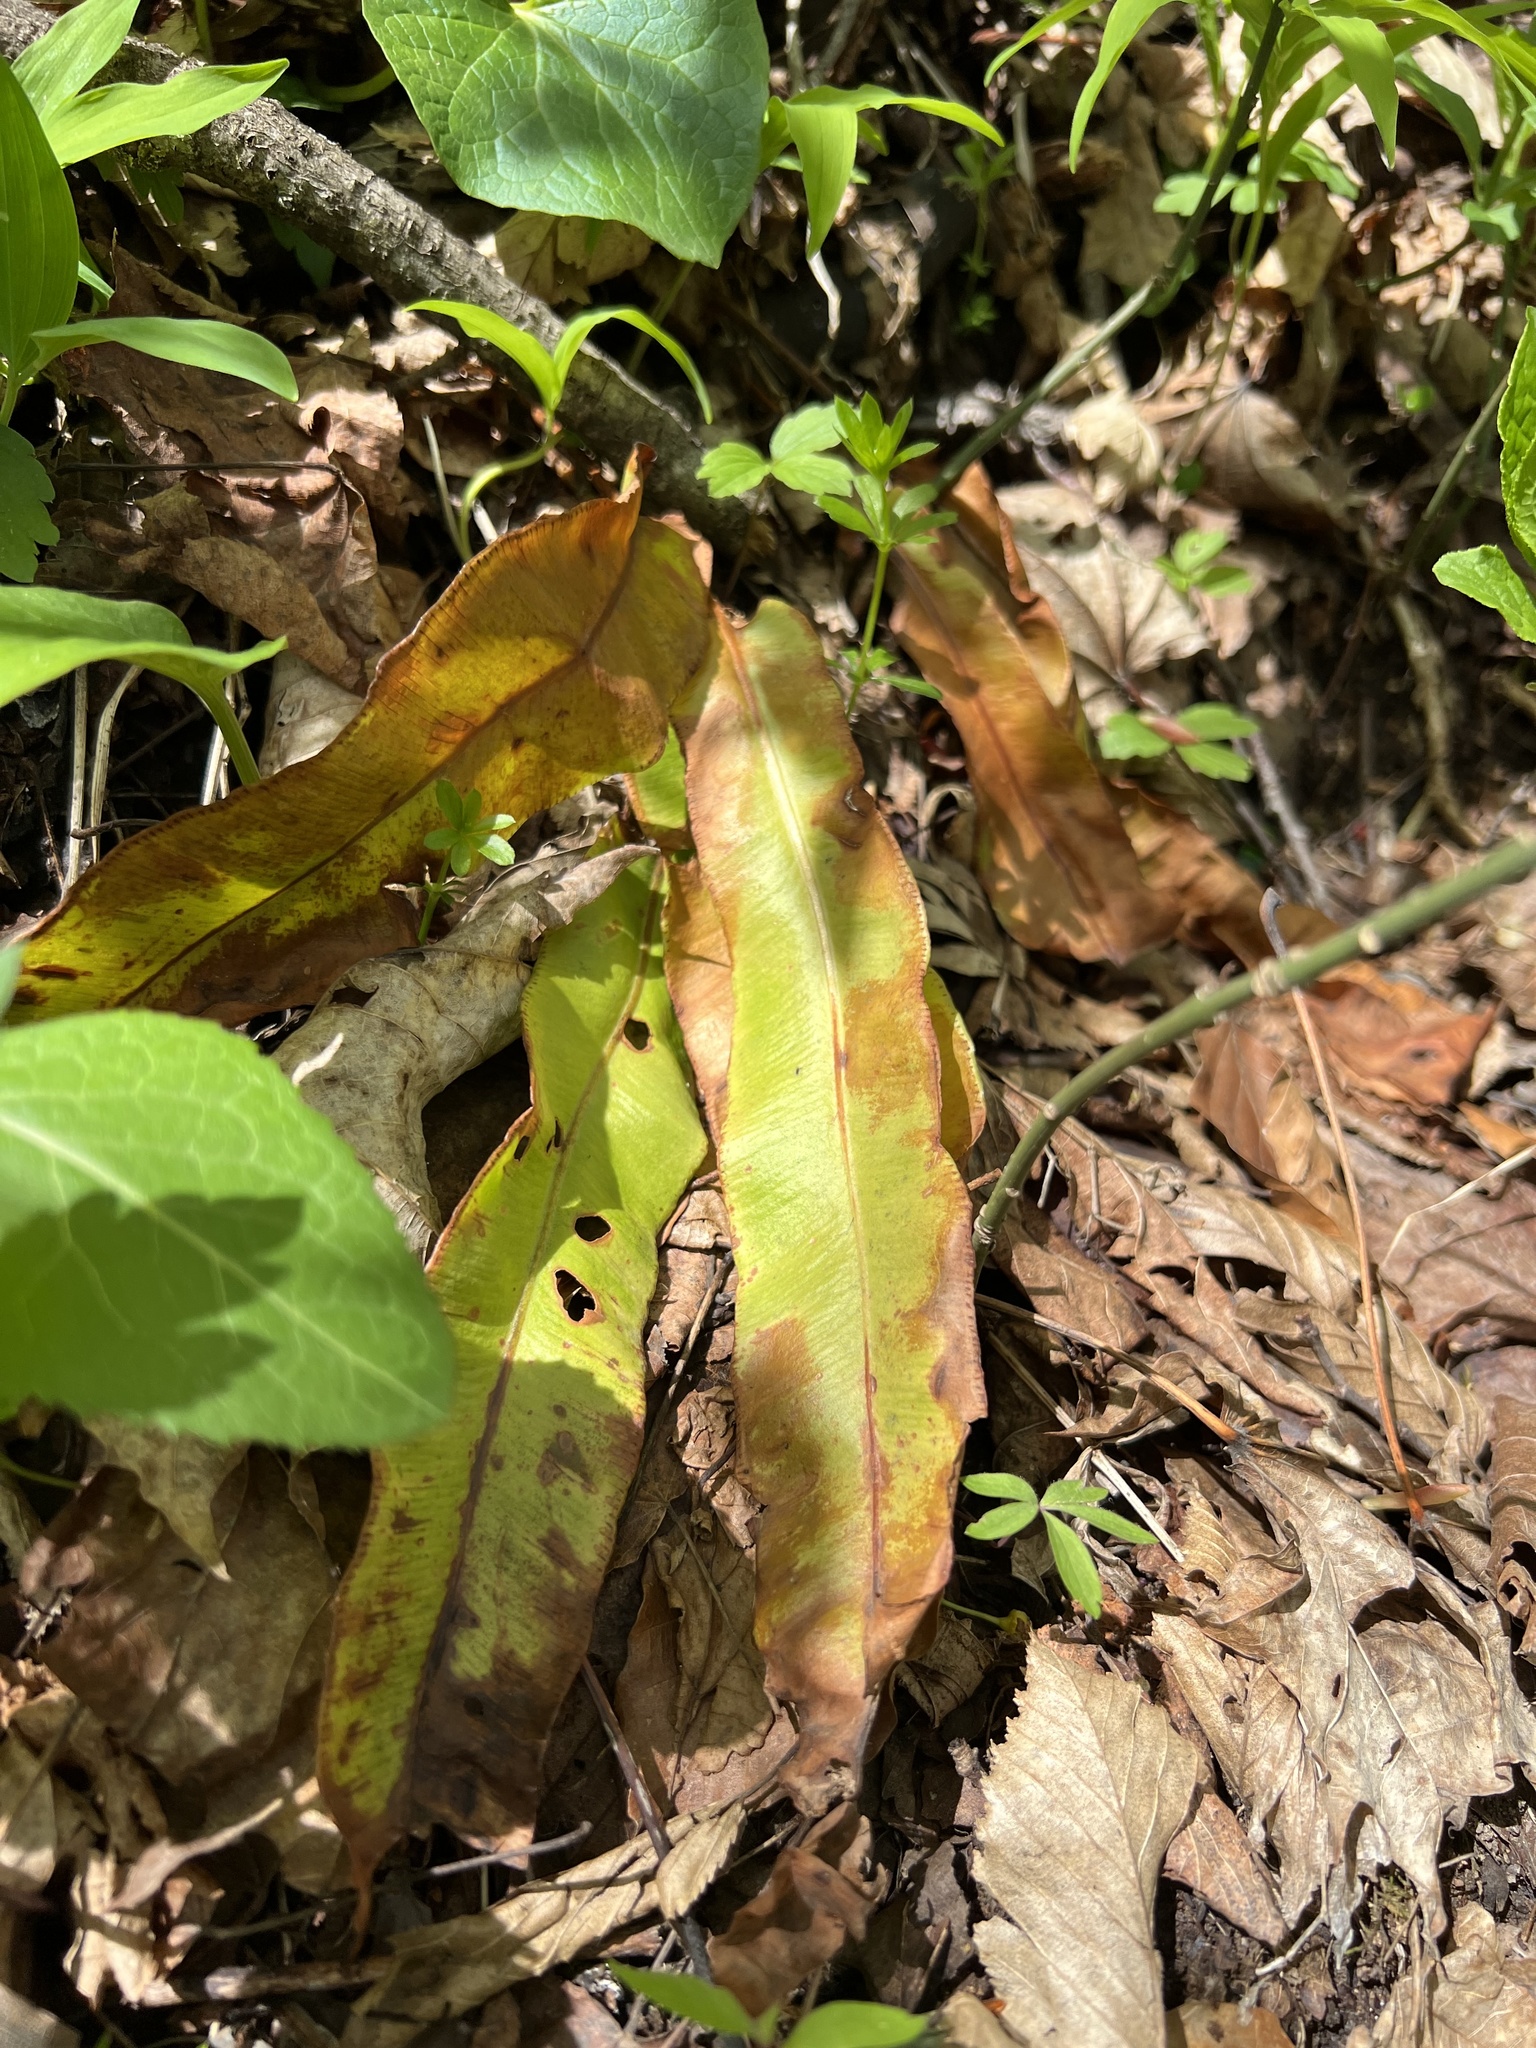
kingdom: Plantae
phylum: Tracheophyta
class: Polypodiopsida
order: Polypodiales
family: Aspleniaceae
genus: Asplenium
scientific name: Asplenium scolopendrium
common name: Hart's-tongue fern
